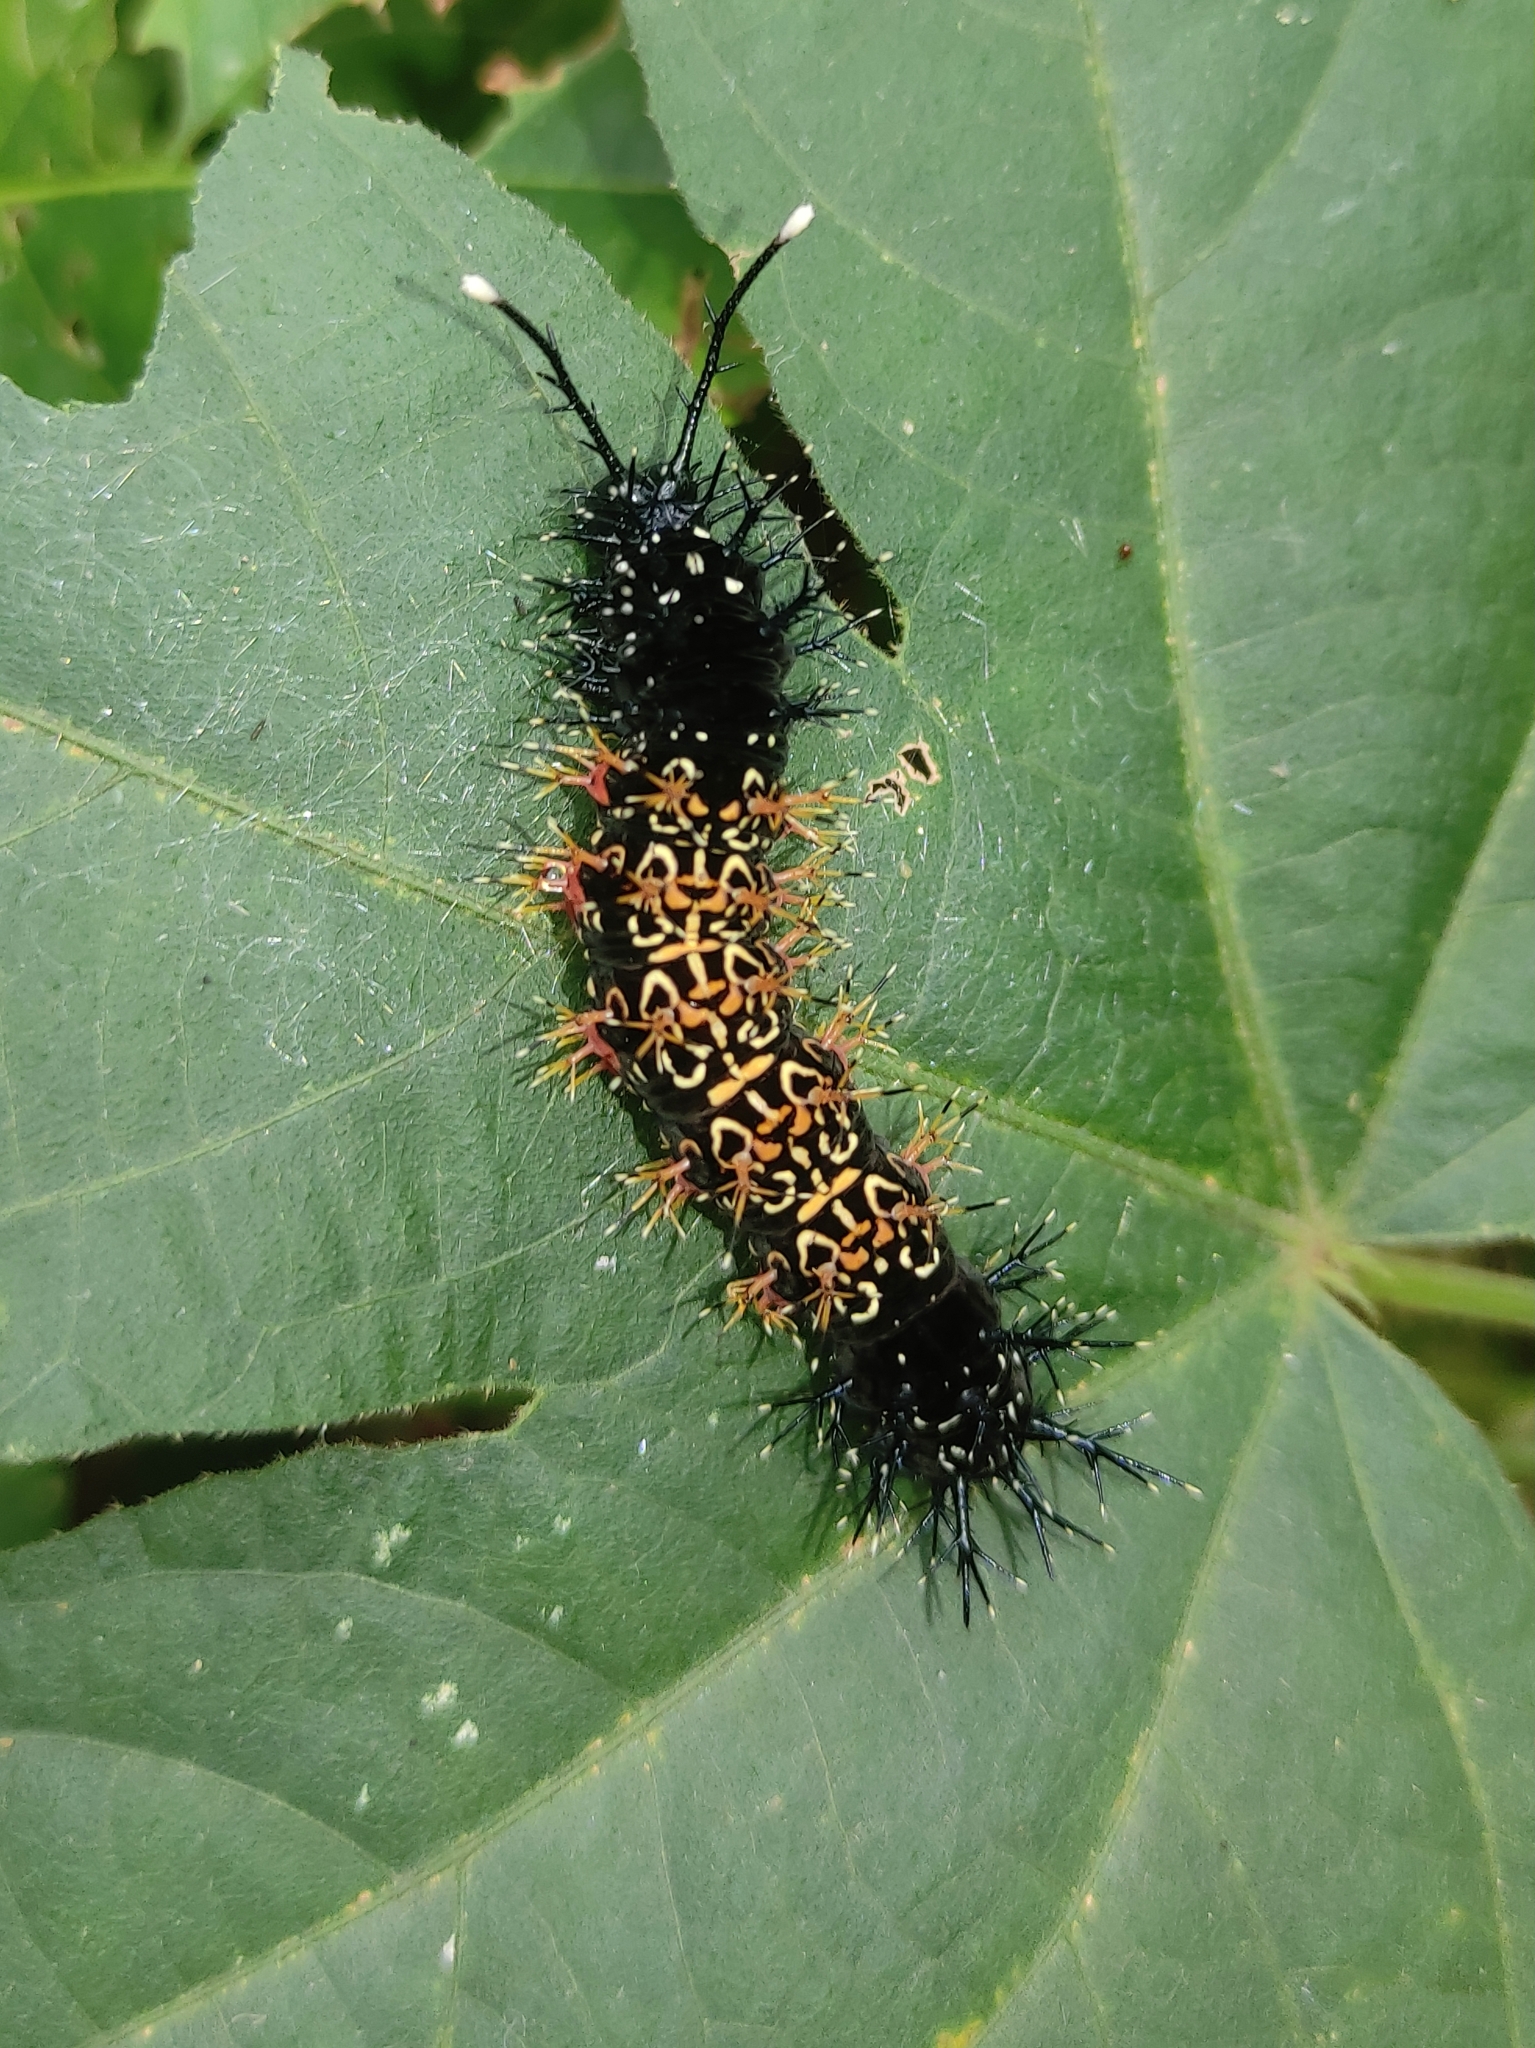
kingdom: Animalia
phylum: Arthropoda
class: Insecta
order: Lepidoptera
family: Nymphalidae
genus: Hamadryas
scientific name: Hamadryas amphinome
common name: Red cracker
